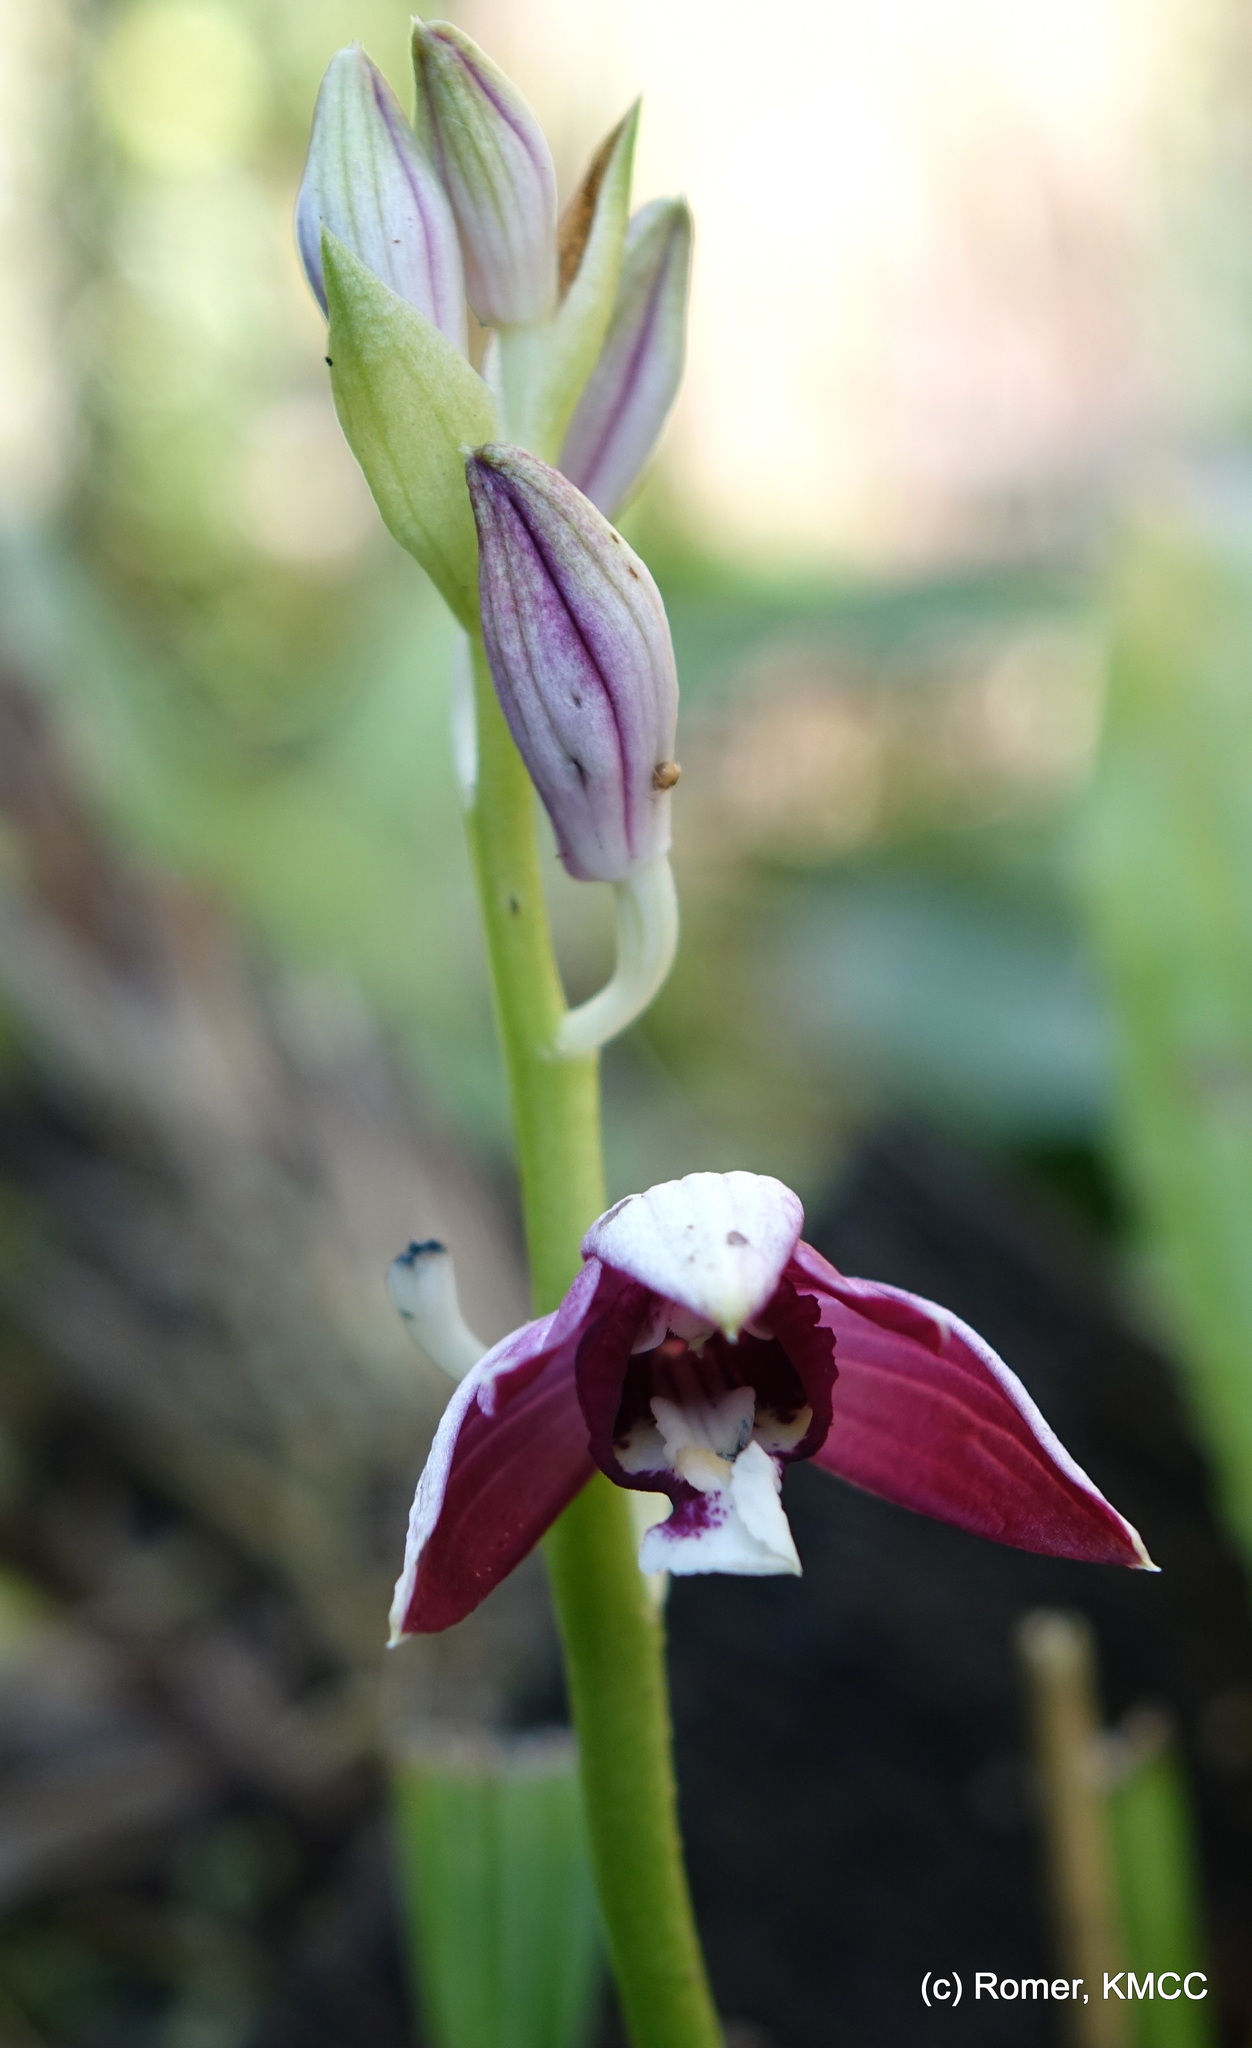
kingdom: Plantae
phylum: Tracheophyta
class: Liliopsida
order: Asparagales
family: Orchidaceae
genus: Calanthe
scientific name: Calanthe pulchella
